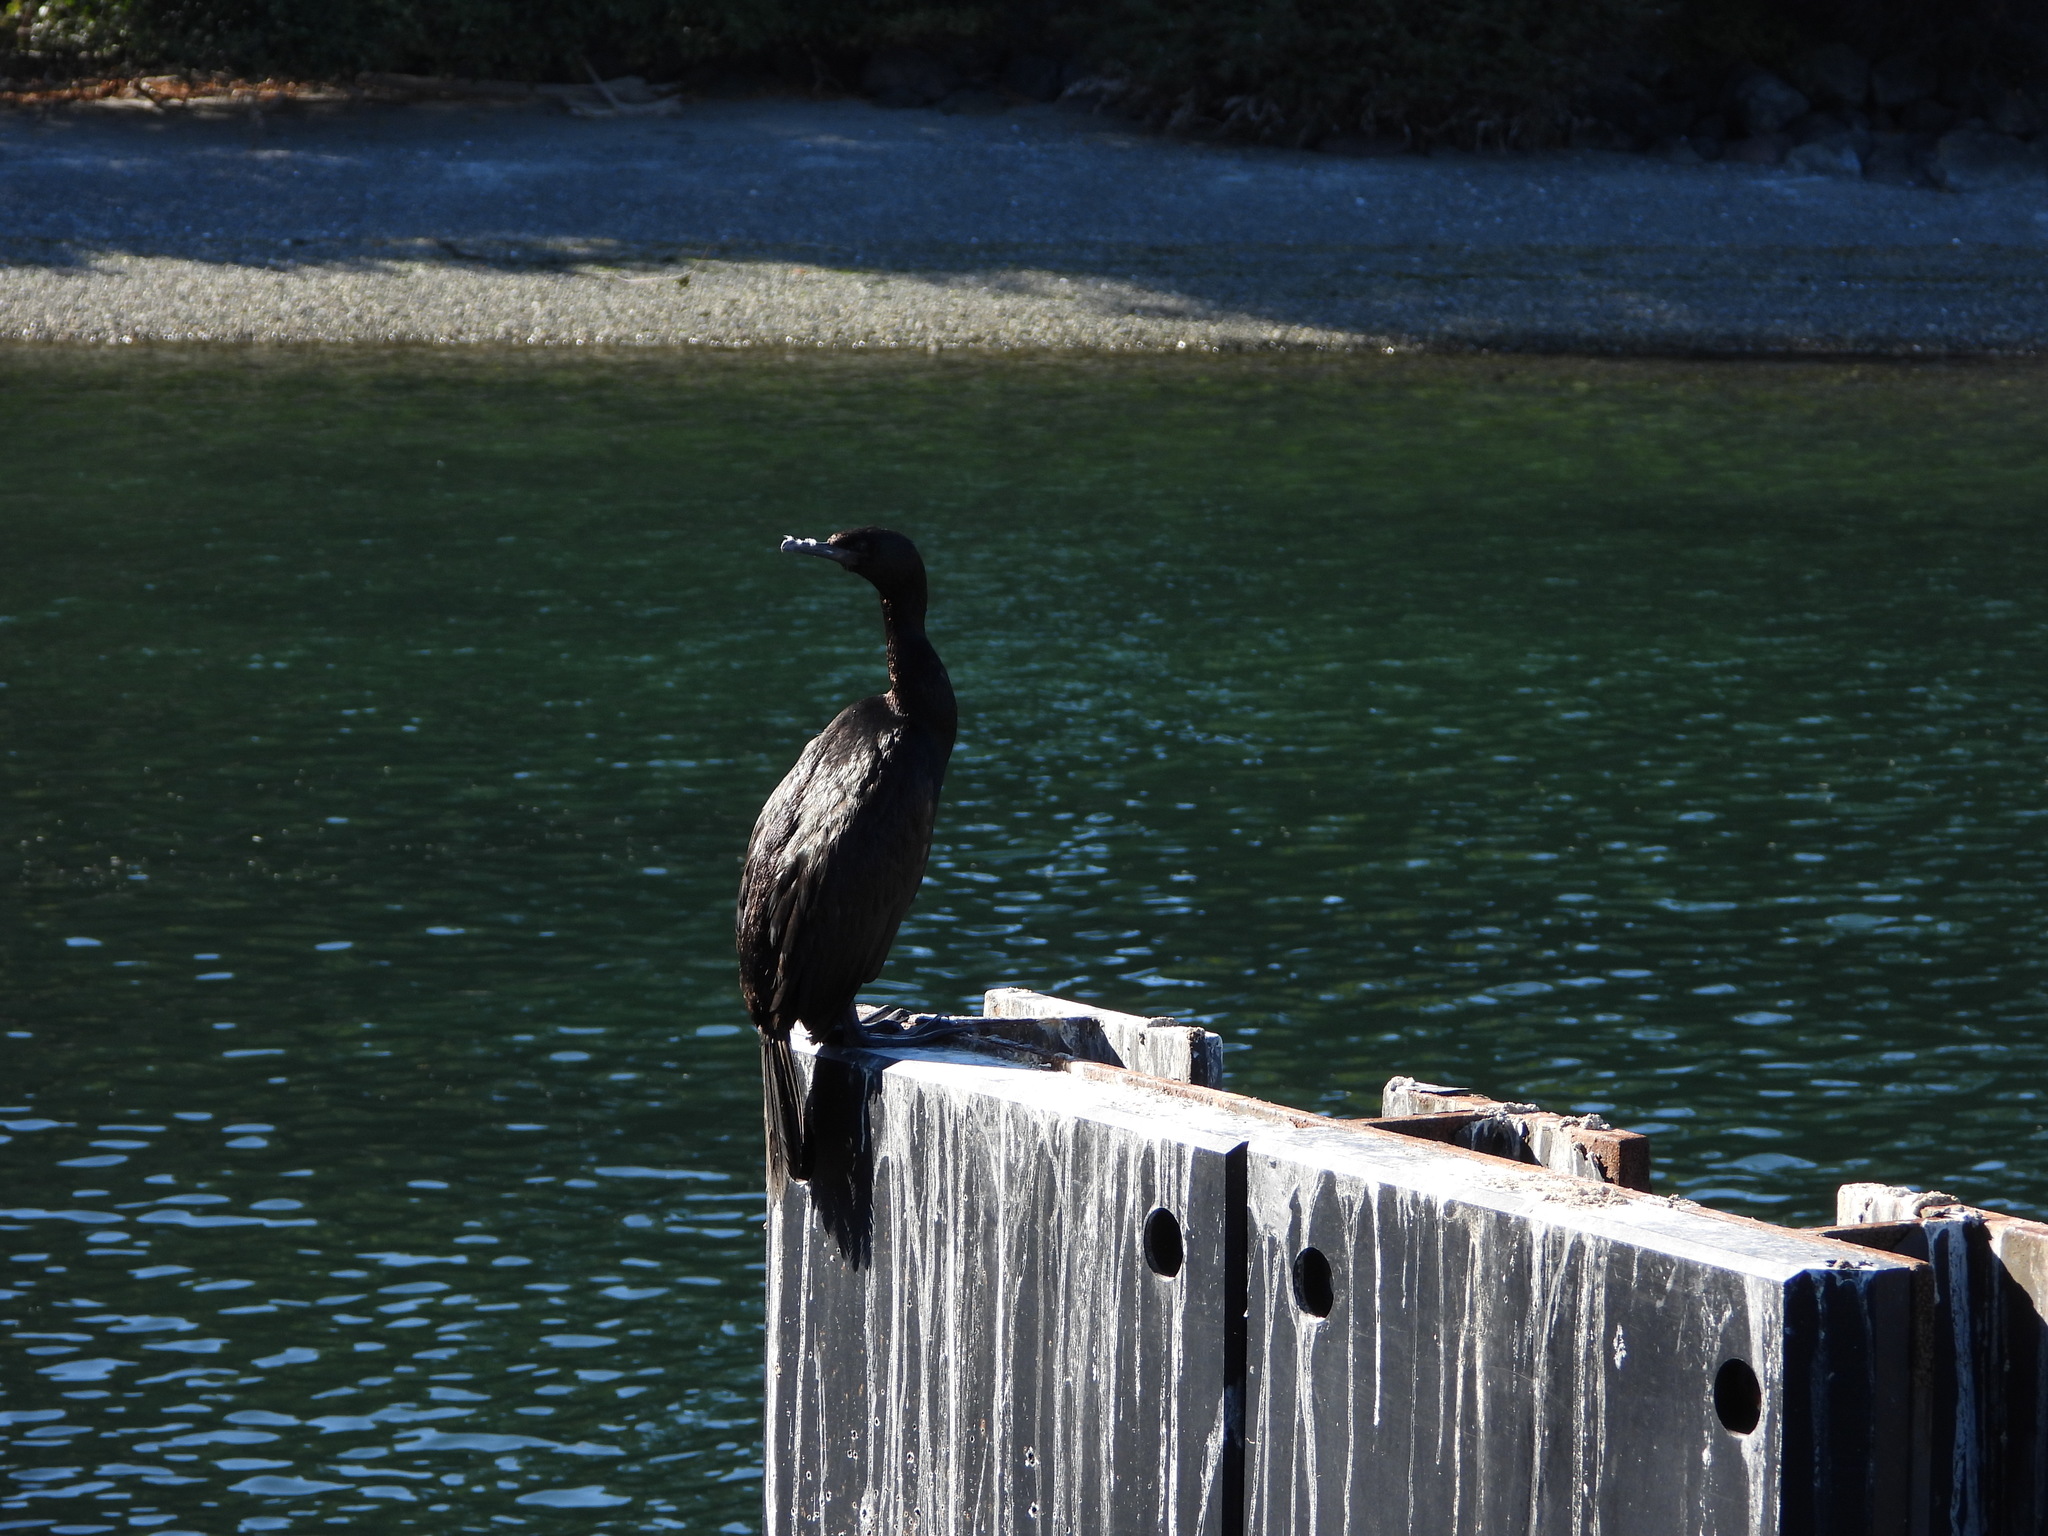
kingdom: Animalia
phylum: Chordata
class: Aves
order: Suliformes
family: Phalacrocoracidae
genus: Phalacrocorax
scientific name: Phalacrocorax pelagicus
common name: Pelagic cormorant
